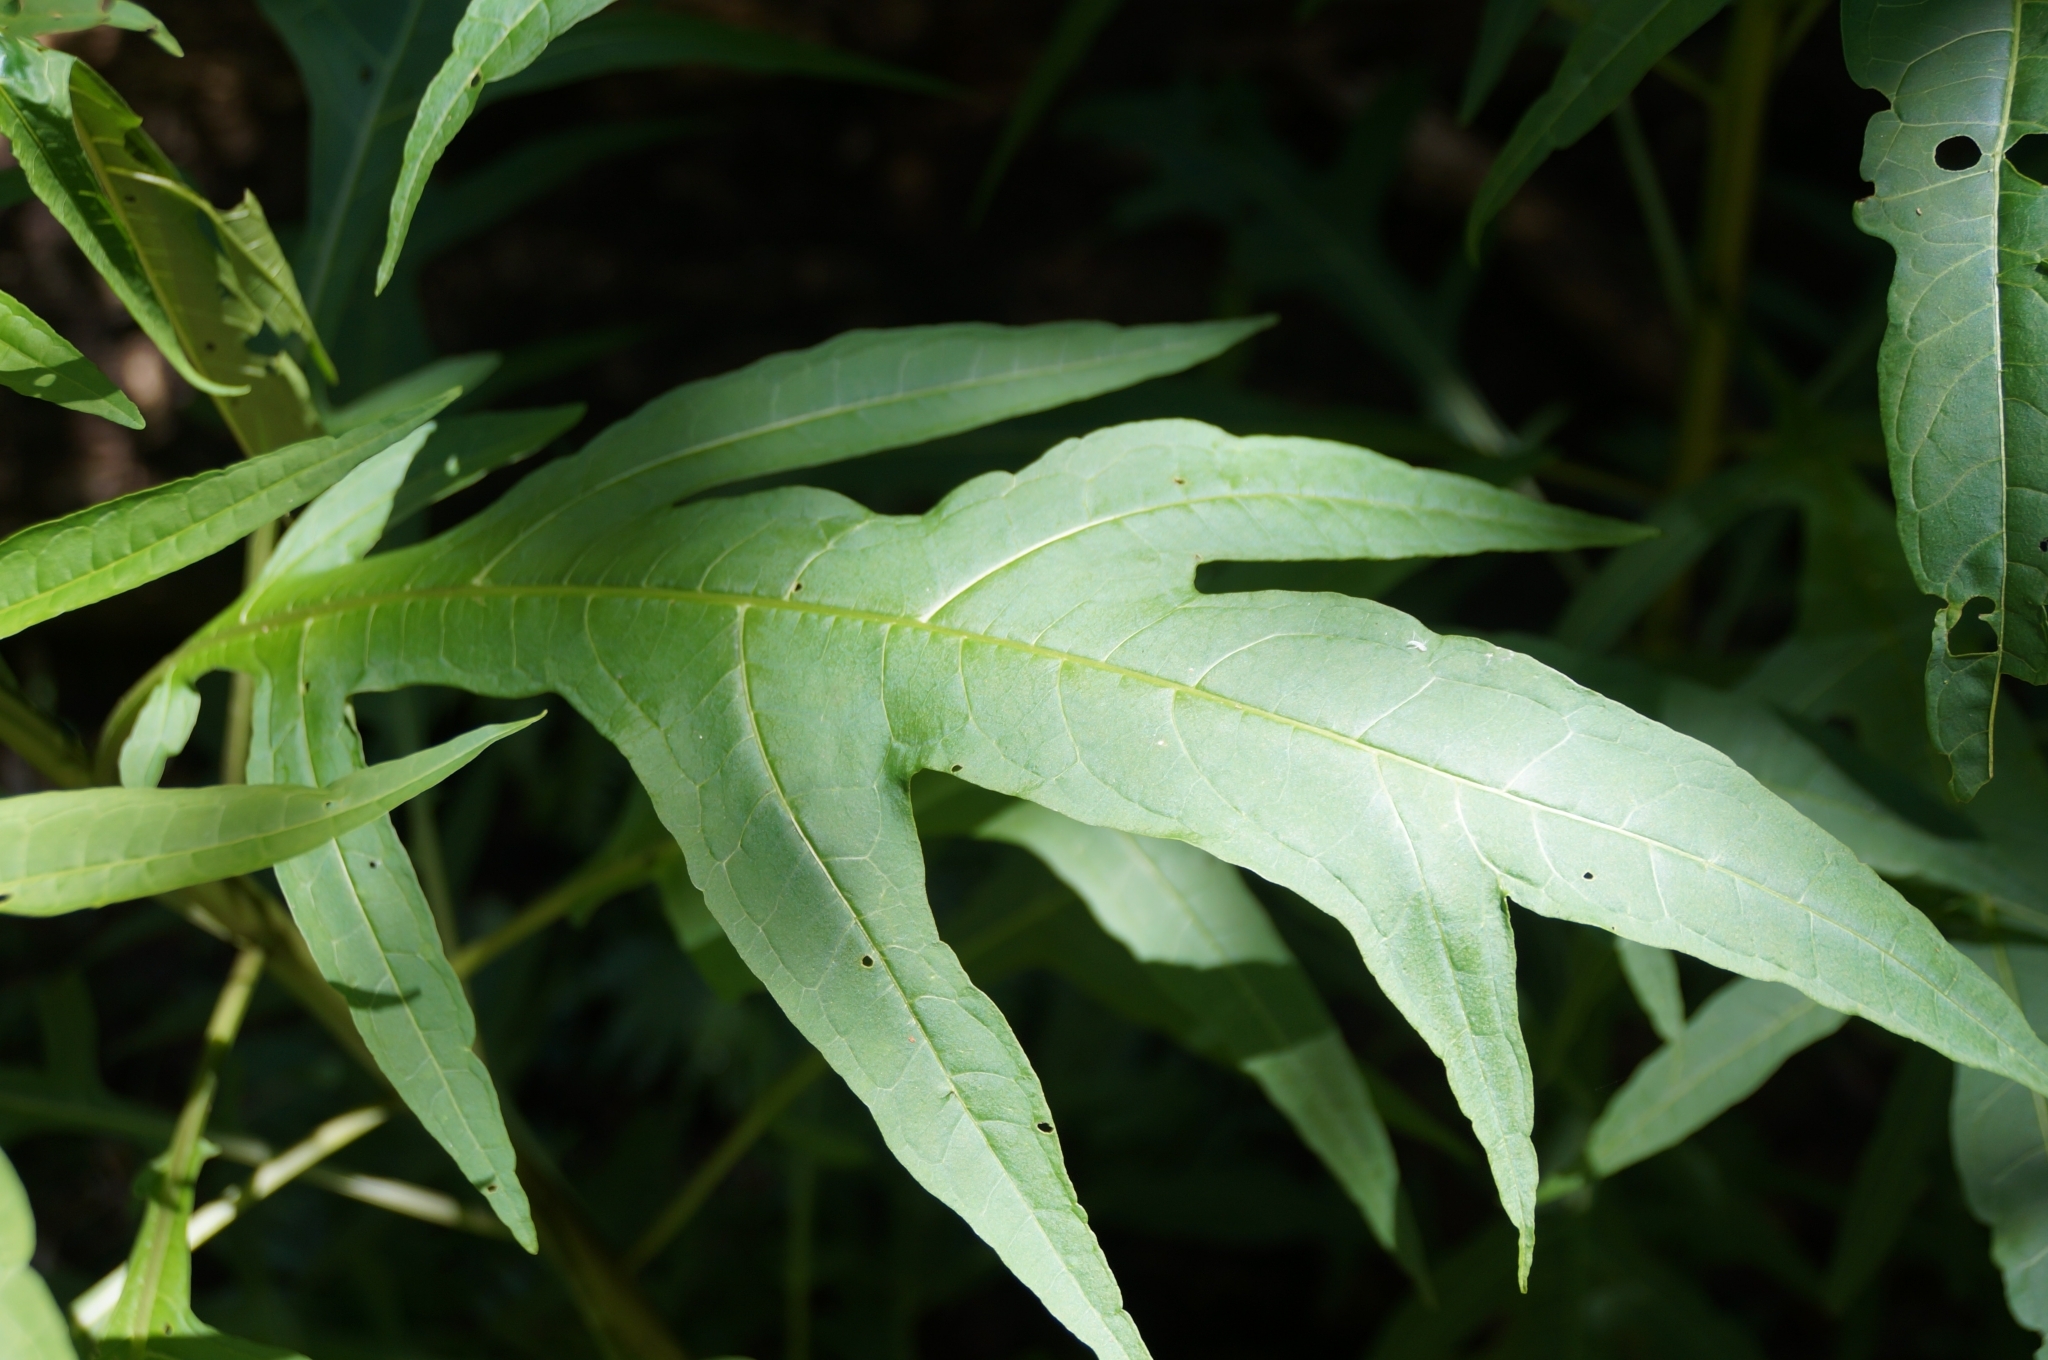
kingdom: Plantae
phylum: Tracheophyta
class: Magnoliopsida
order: Solanales
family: Solanaceae
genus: Solanum
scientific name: Solanum
